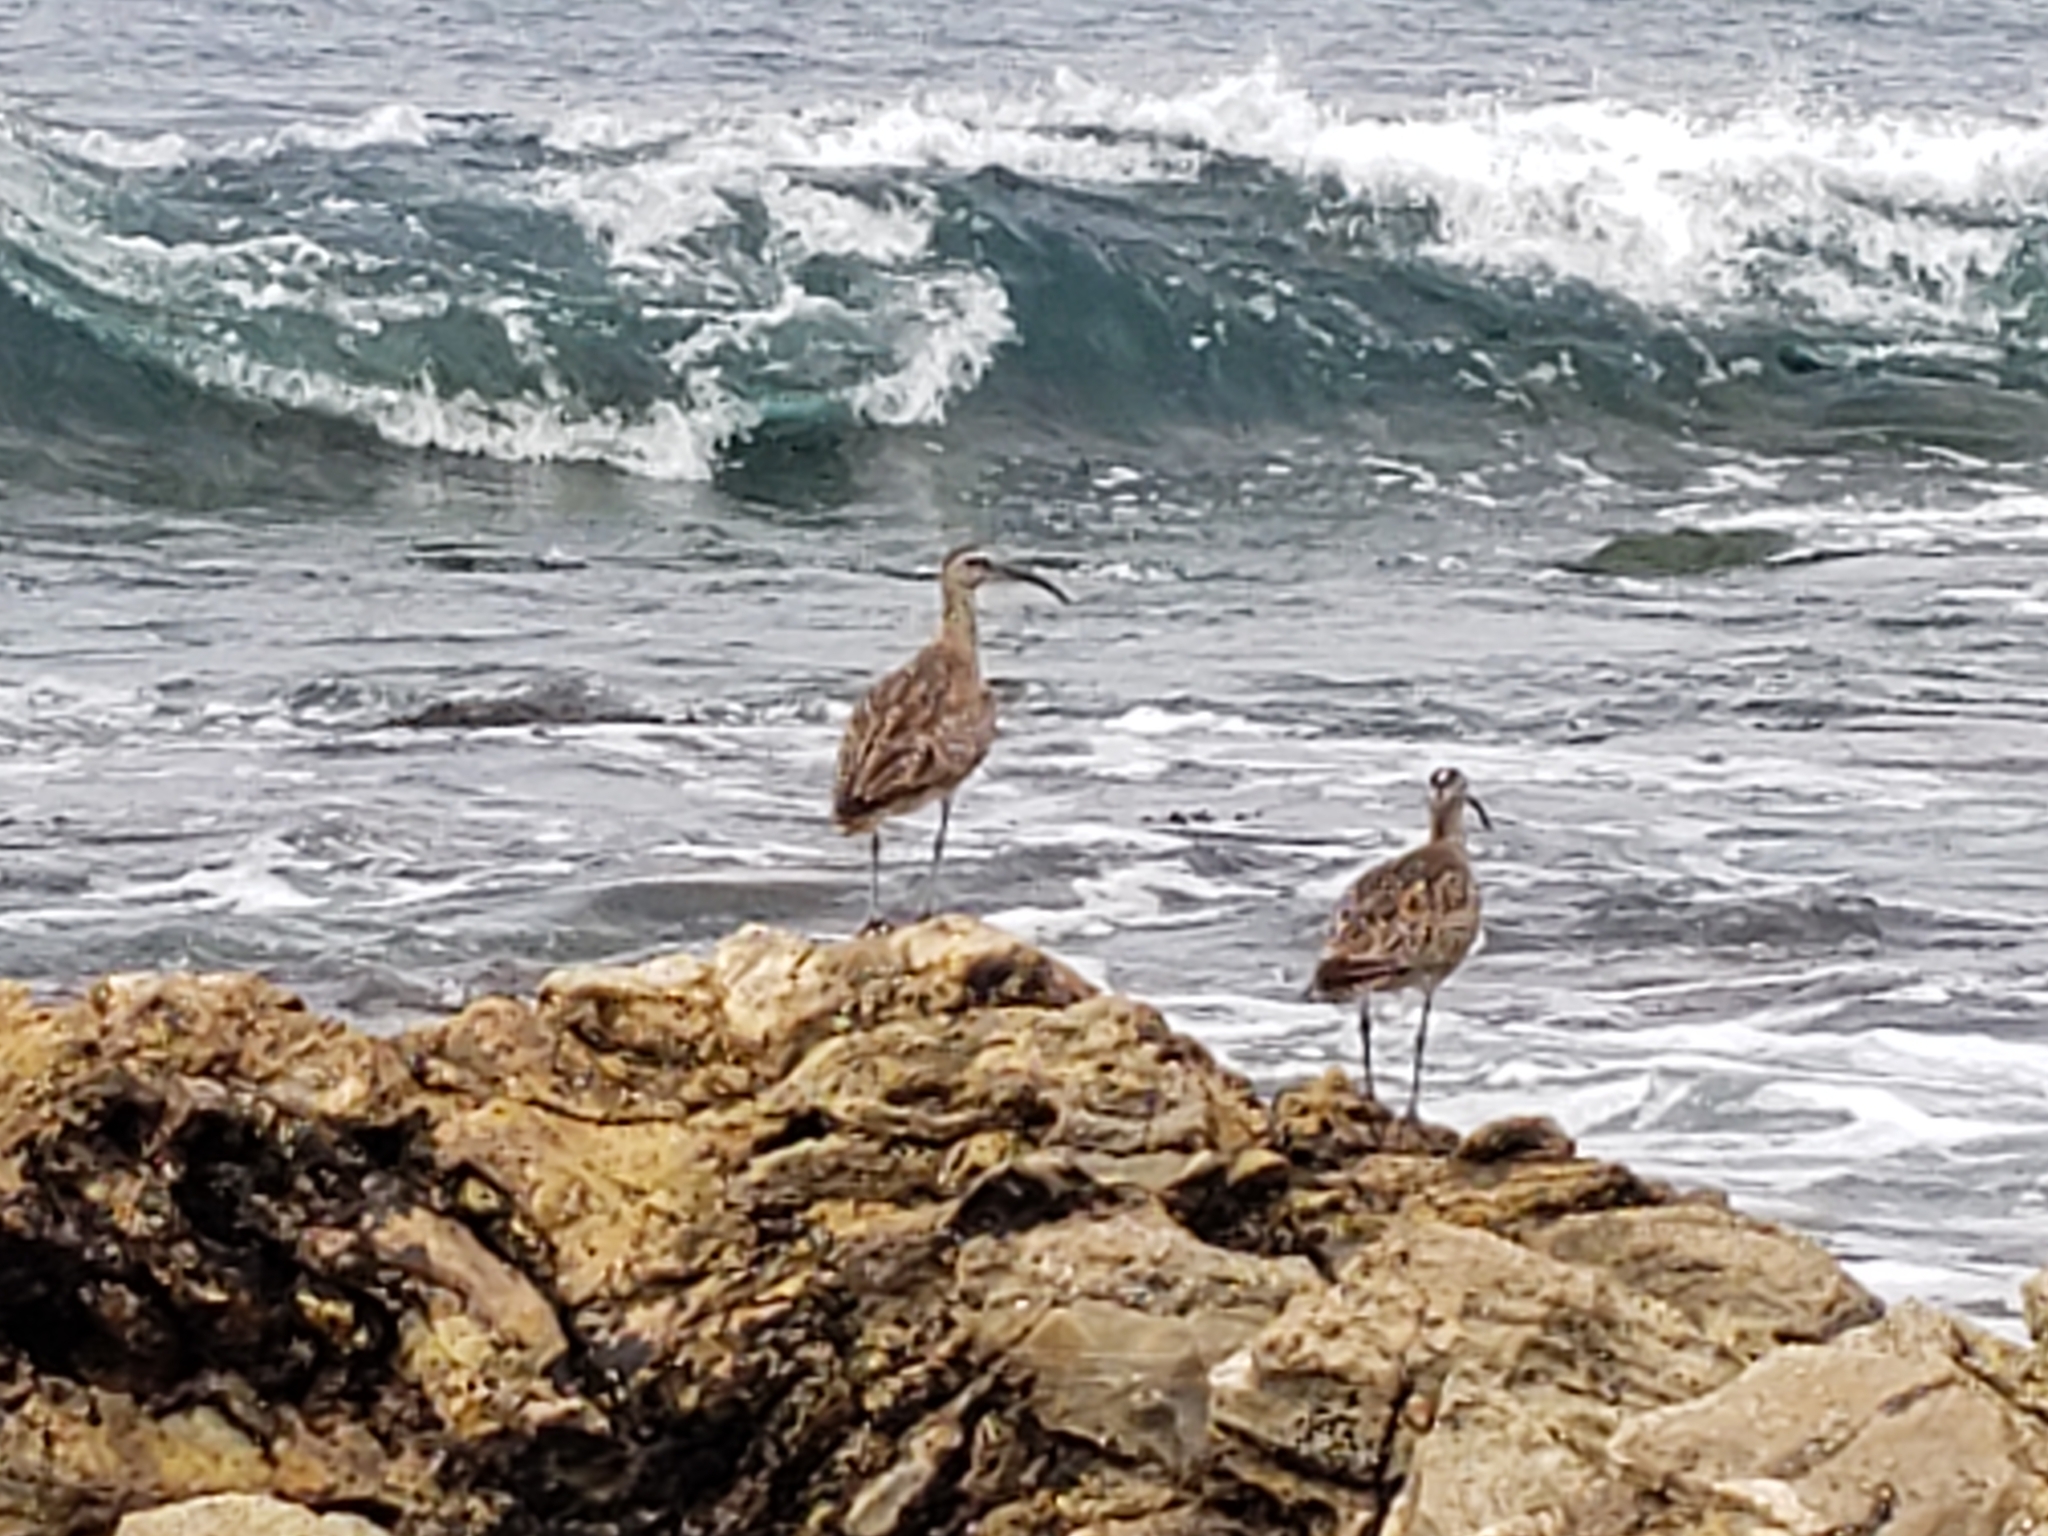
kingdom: Animalia
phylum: Chordata
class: Aves
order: Charadriiformes
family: Scolopacidae
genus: Numenius
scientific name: Numenius phaeopus
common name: Whimbrel
